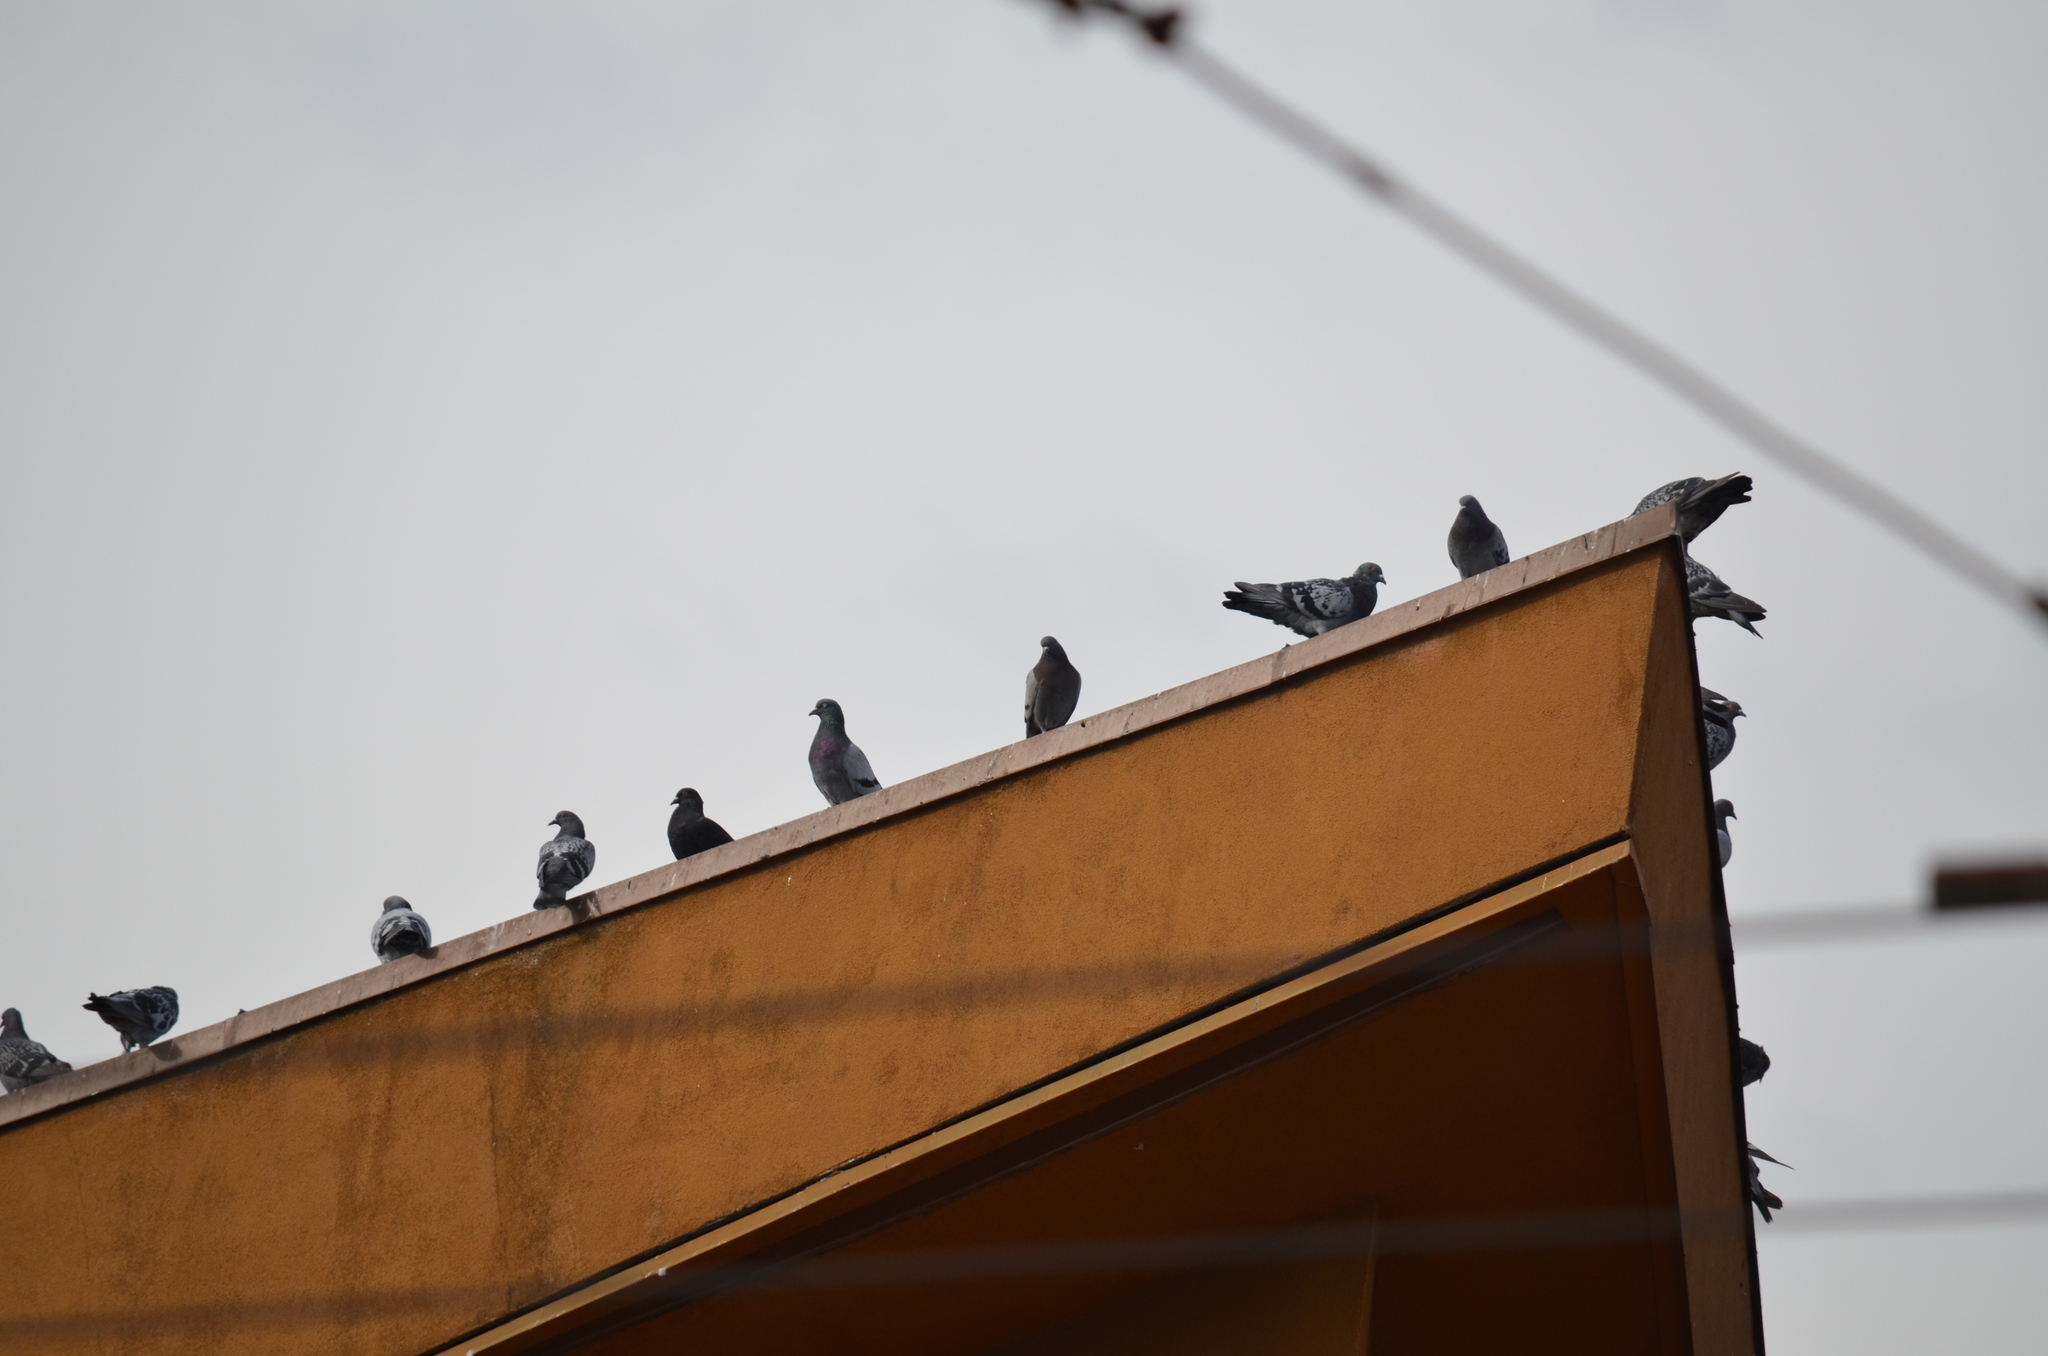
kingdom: Animalia
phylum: Chordata
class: Aves
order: Columbiformes
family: Columbidae
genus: Columba
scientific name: Columba livia
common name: Rock pigeon
